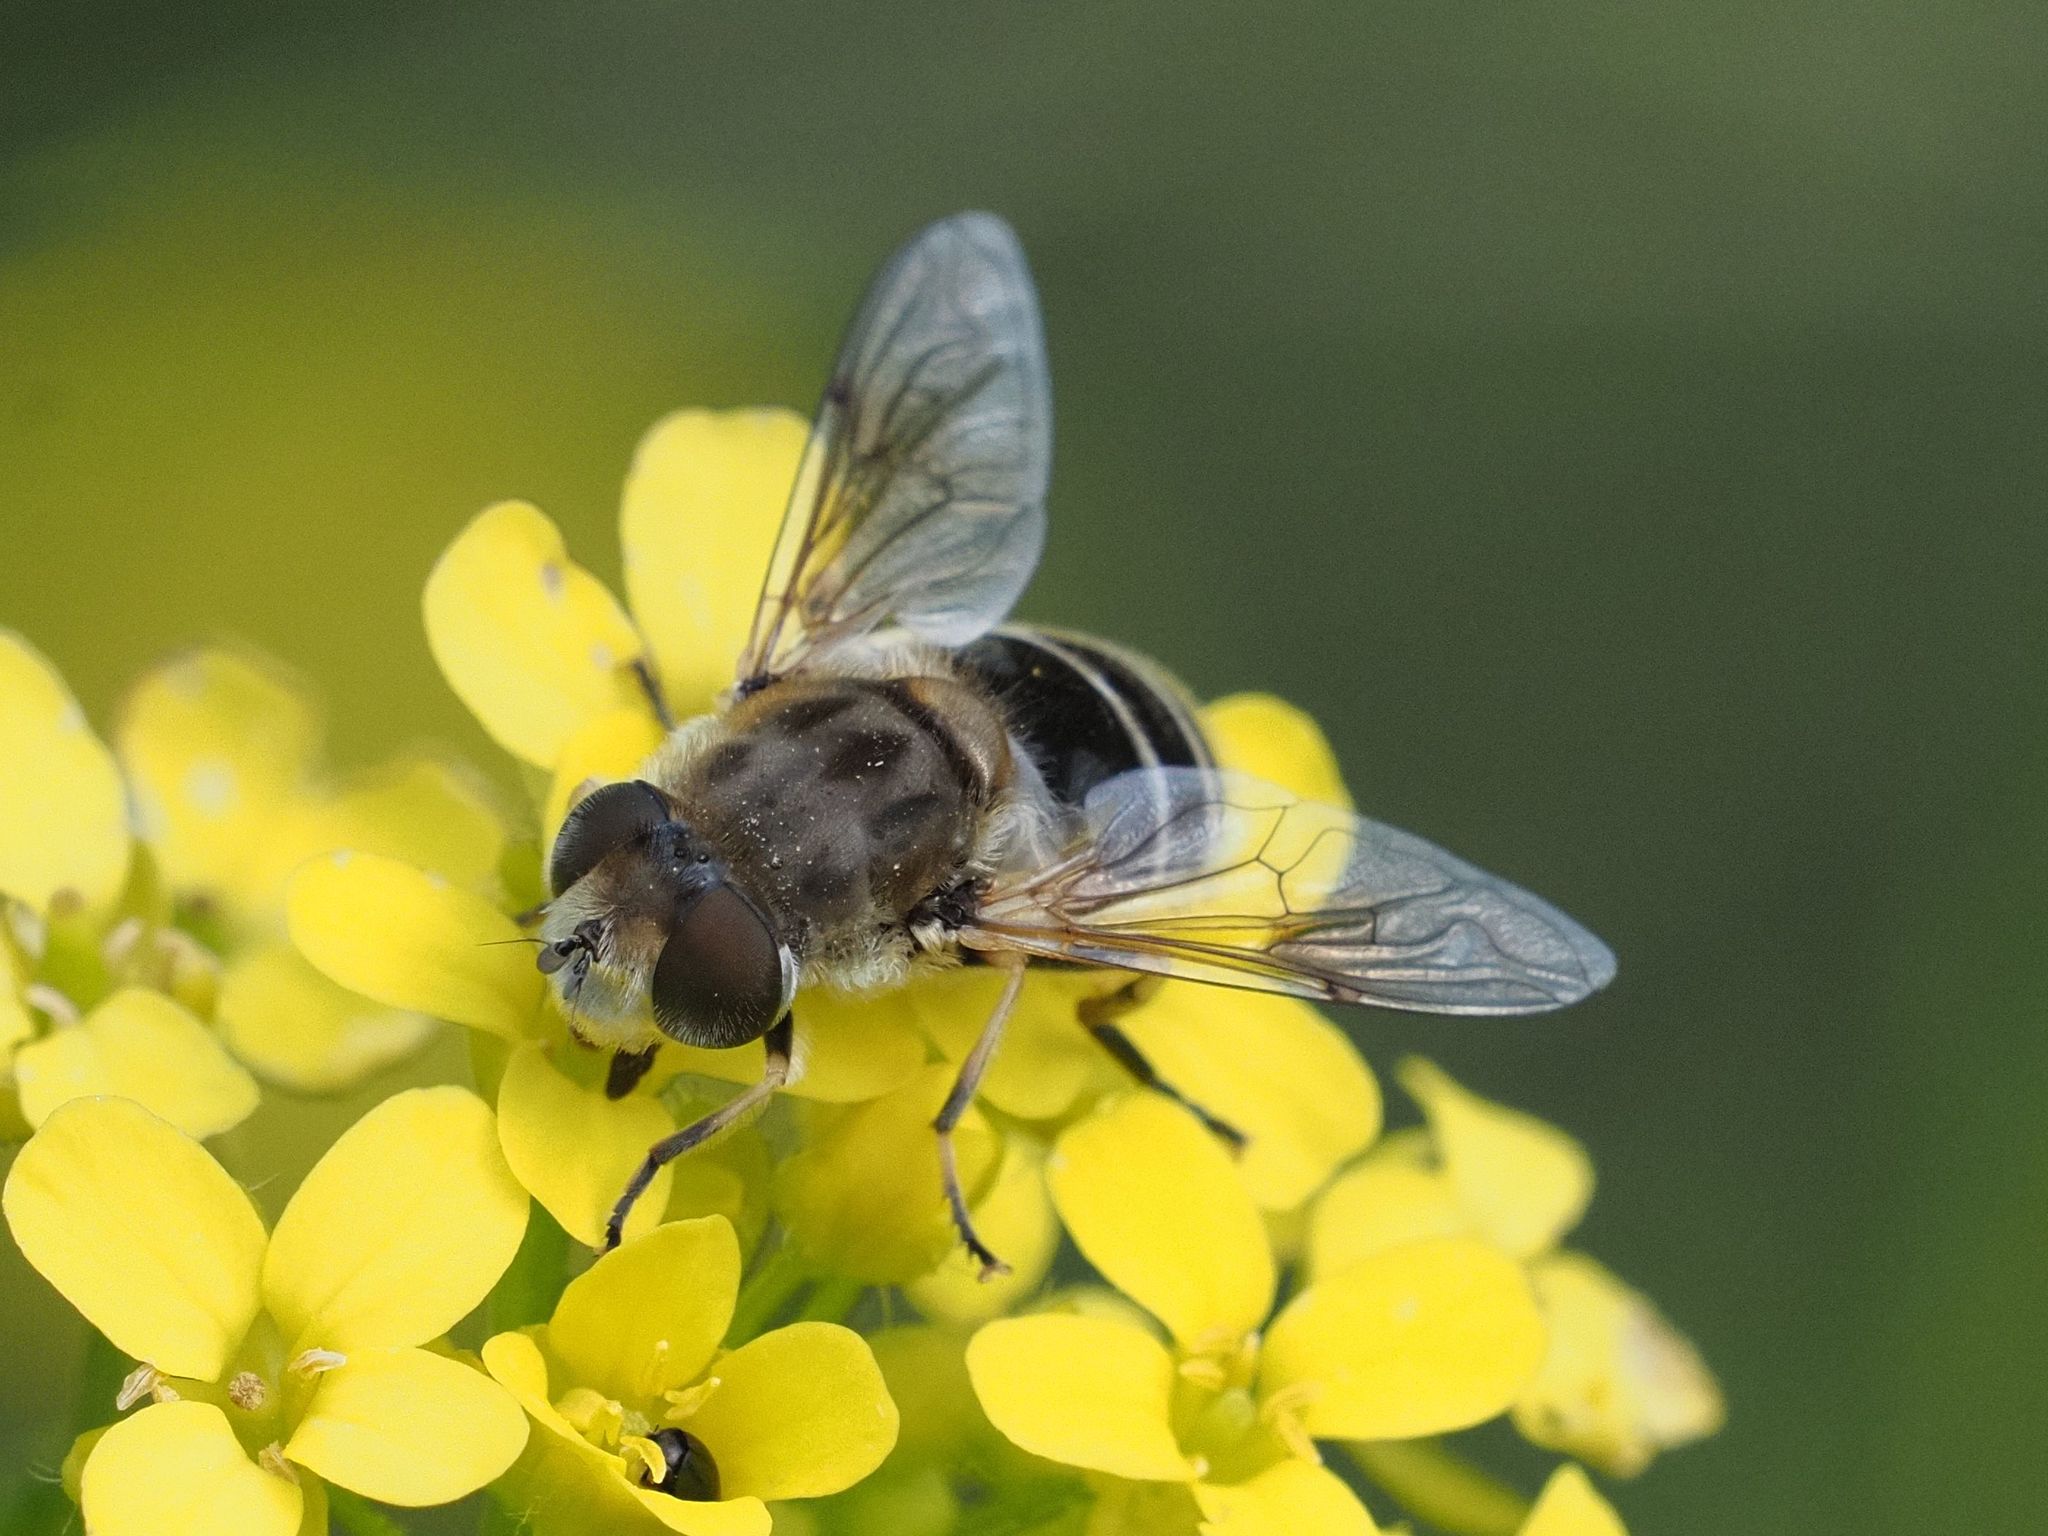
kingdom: Animalia
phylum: Arthropoda
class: Insecta
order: Diptera
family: Syrphidae
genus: Eristalis
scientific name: Eristalis arbustorum
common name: Hover fly
